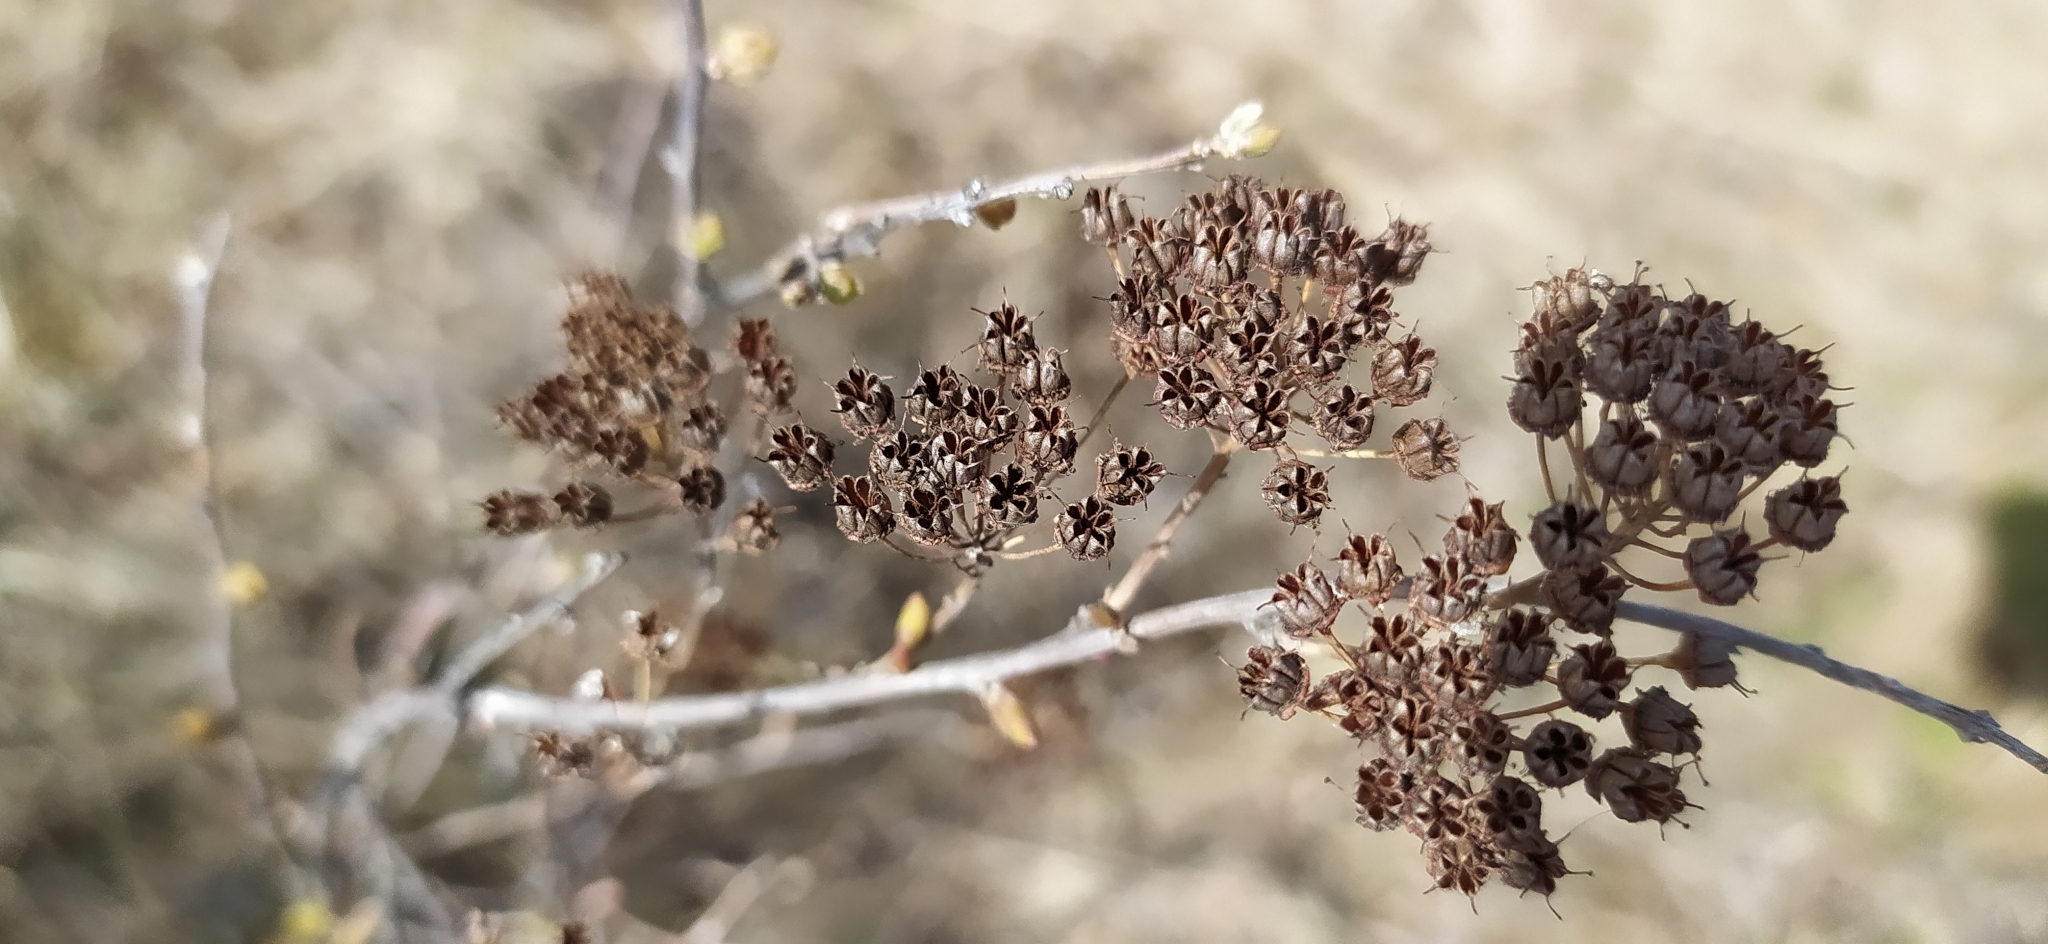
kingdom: Plantae
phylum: Tracheophyta
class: Magnoliopsida
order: Rosales
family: Rosaceae
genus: Spiraea
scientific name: Spiraea media
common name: Russian spiraea
